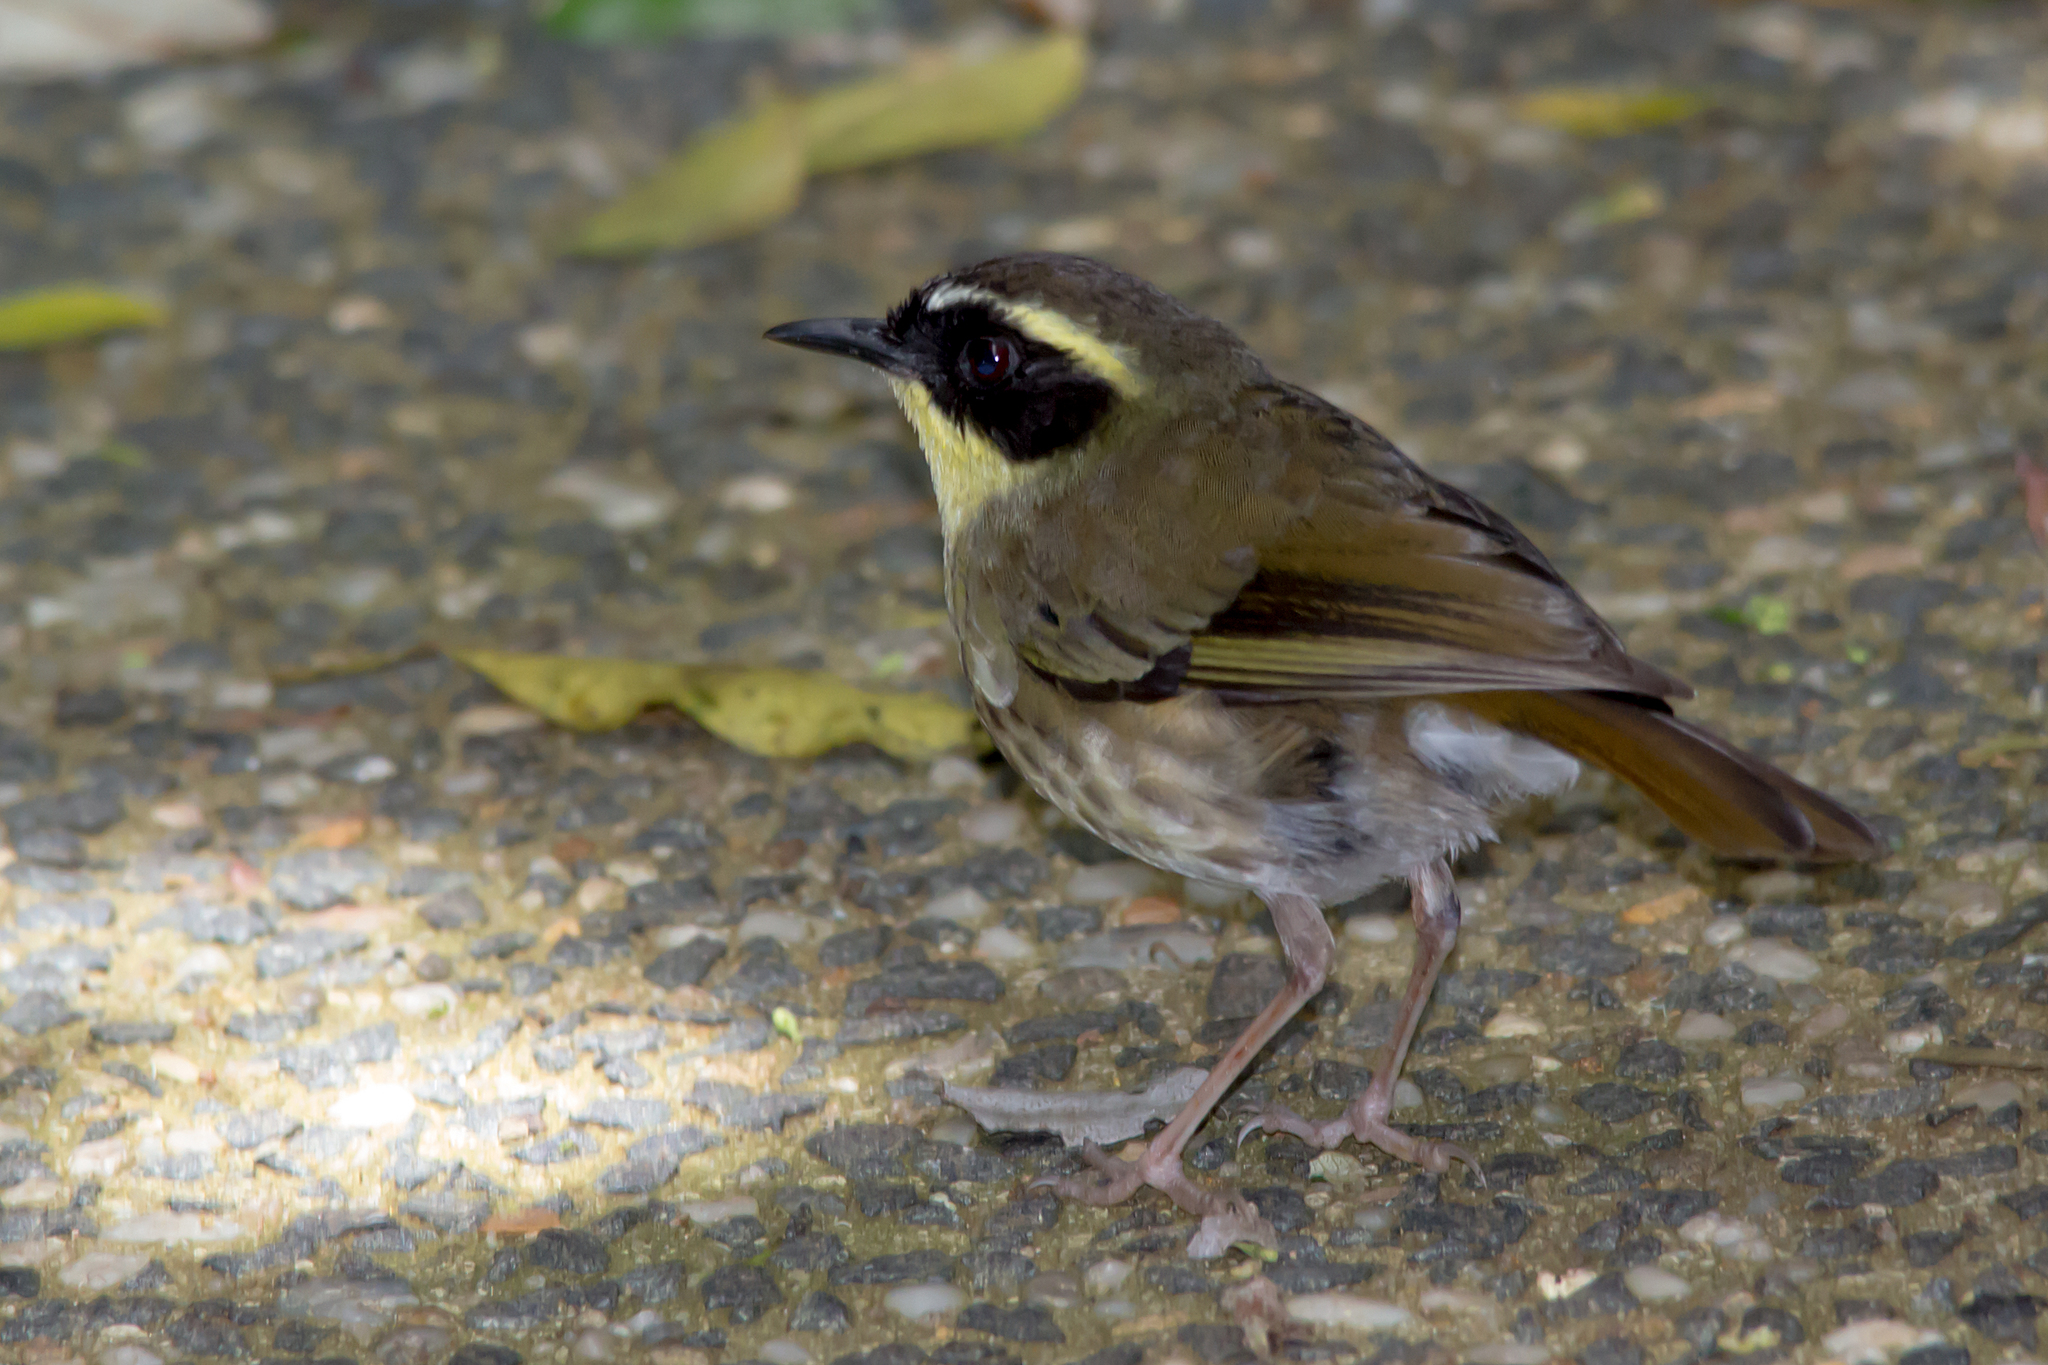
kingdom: Animalia
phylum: Chordata
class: Aves
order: Passeriformes
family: Acanthizidae
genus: Sericornis
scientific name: Sericornis citreogularis
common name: Yellow-throated scrubwren
